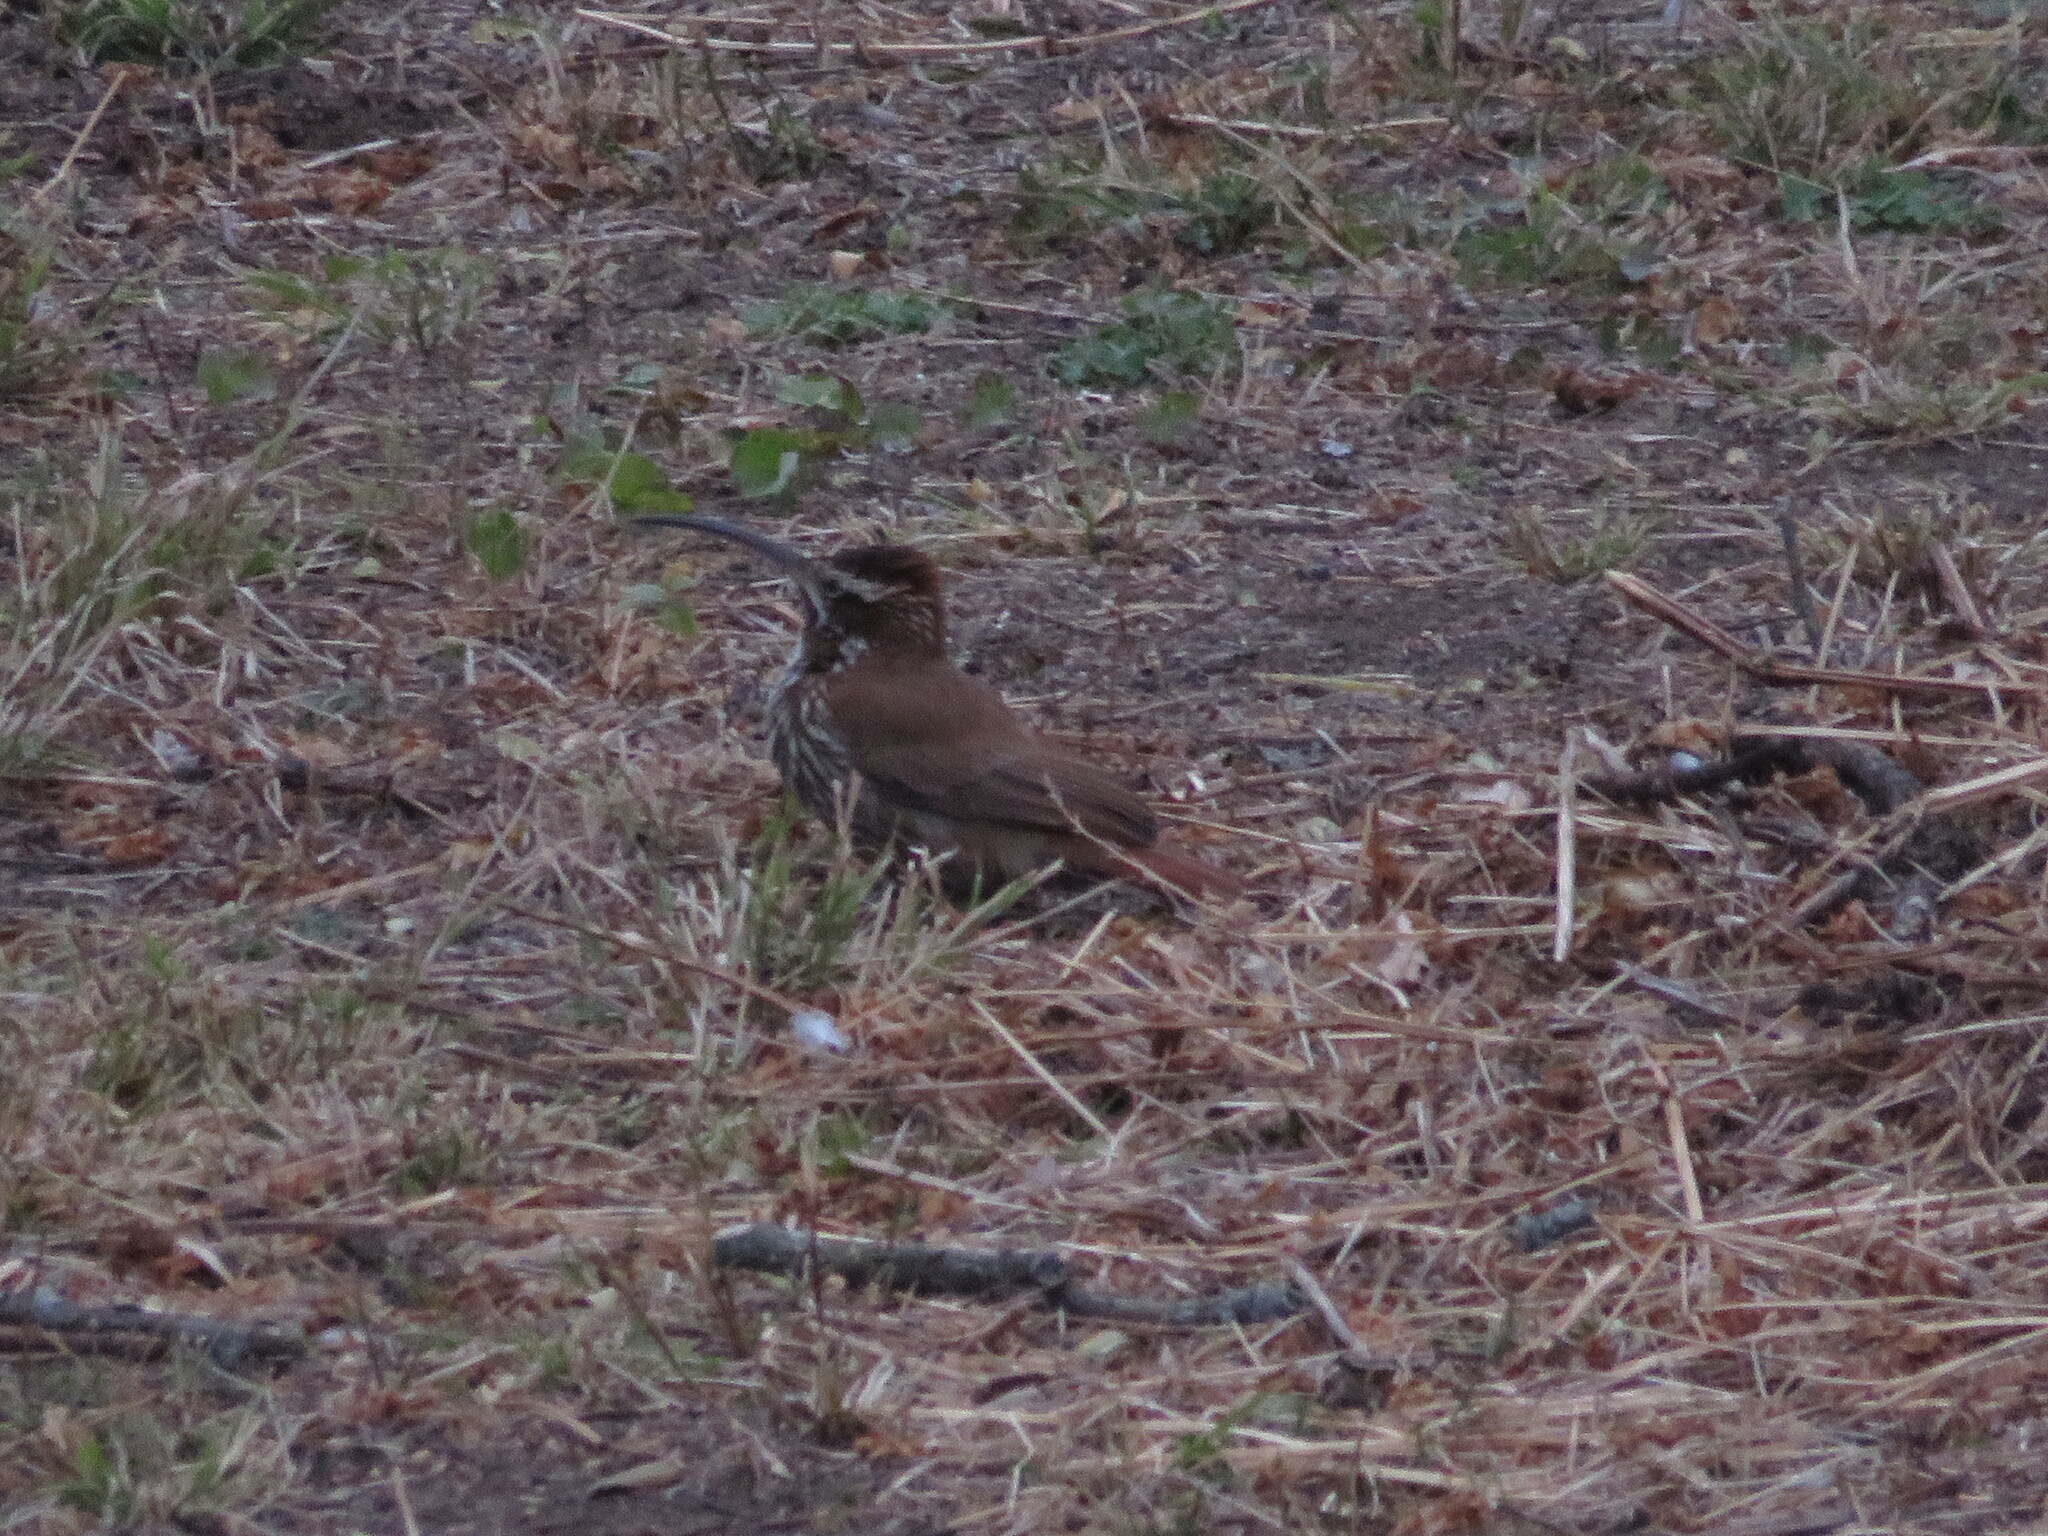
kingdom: Animalia
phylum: Chordata
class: Aves
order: Passeriformes
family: Furnariidae
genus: Drymornis
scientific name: Drymornis bridgesii
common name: Scimitar-billed woodcreeper
